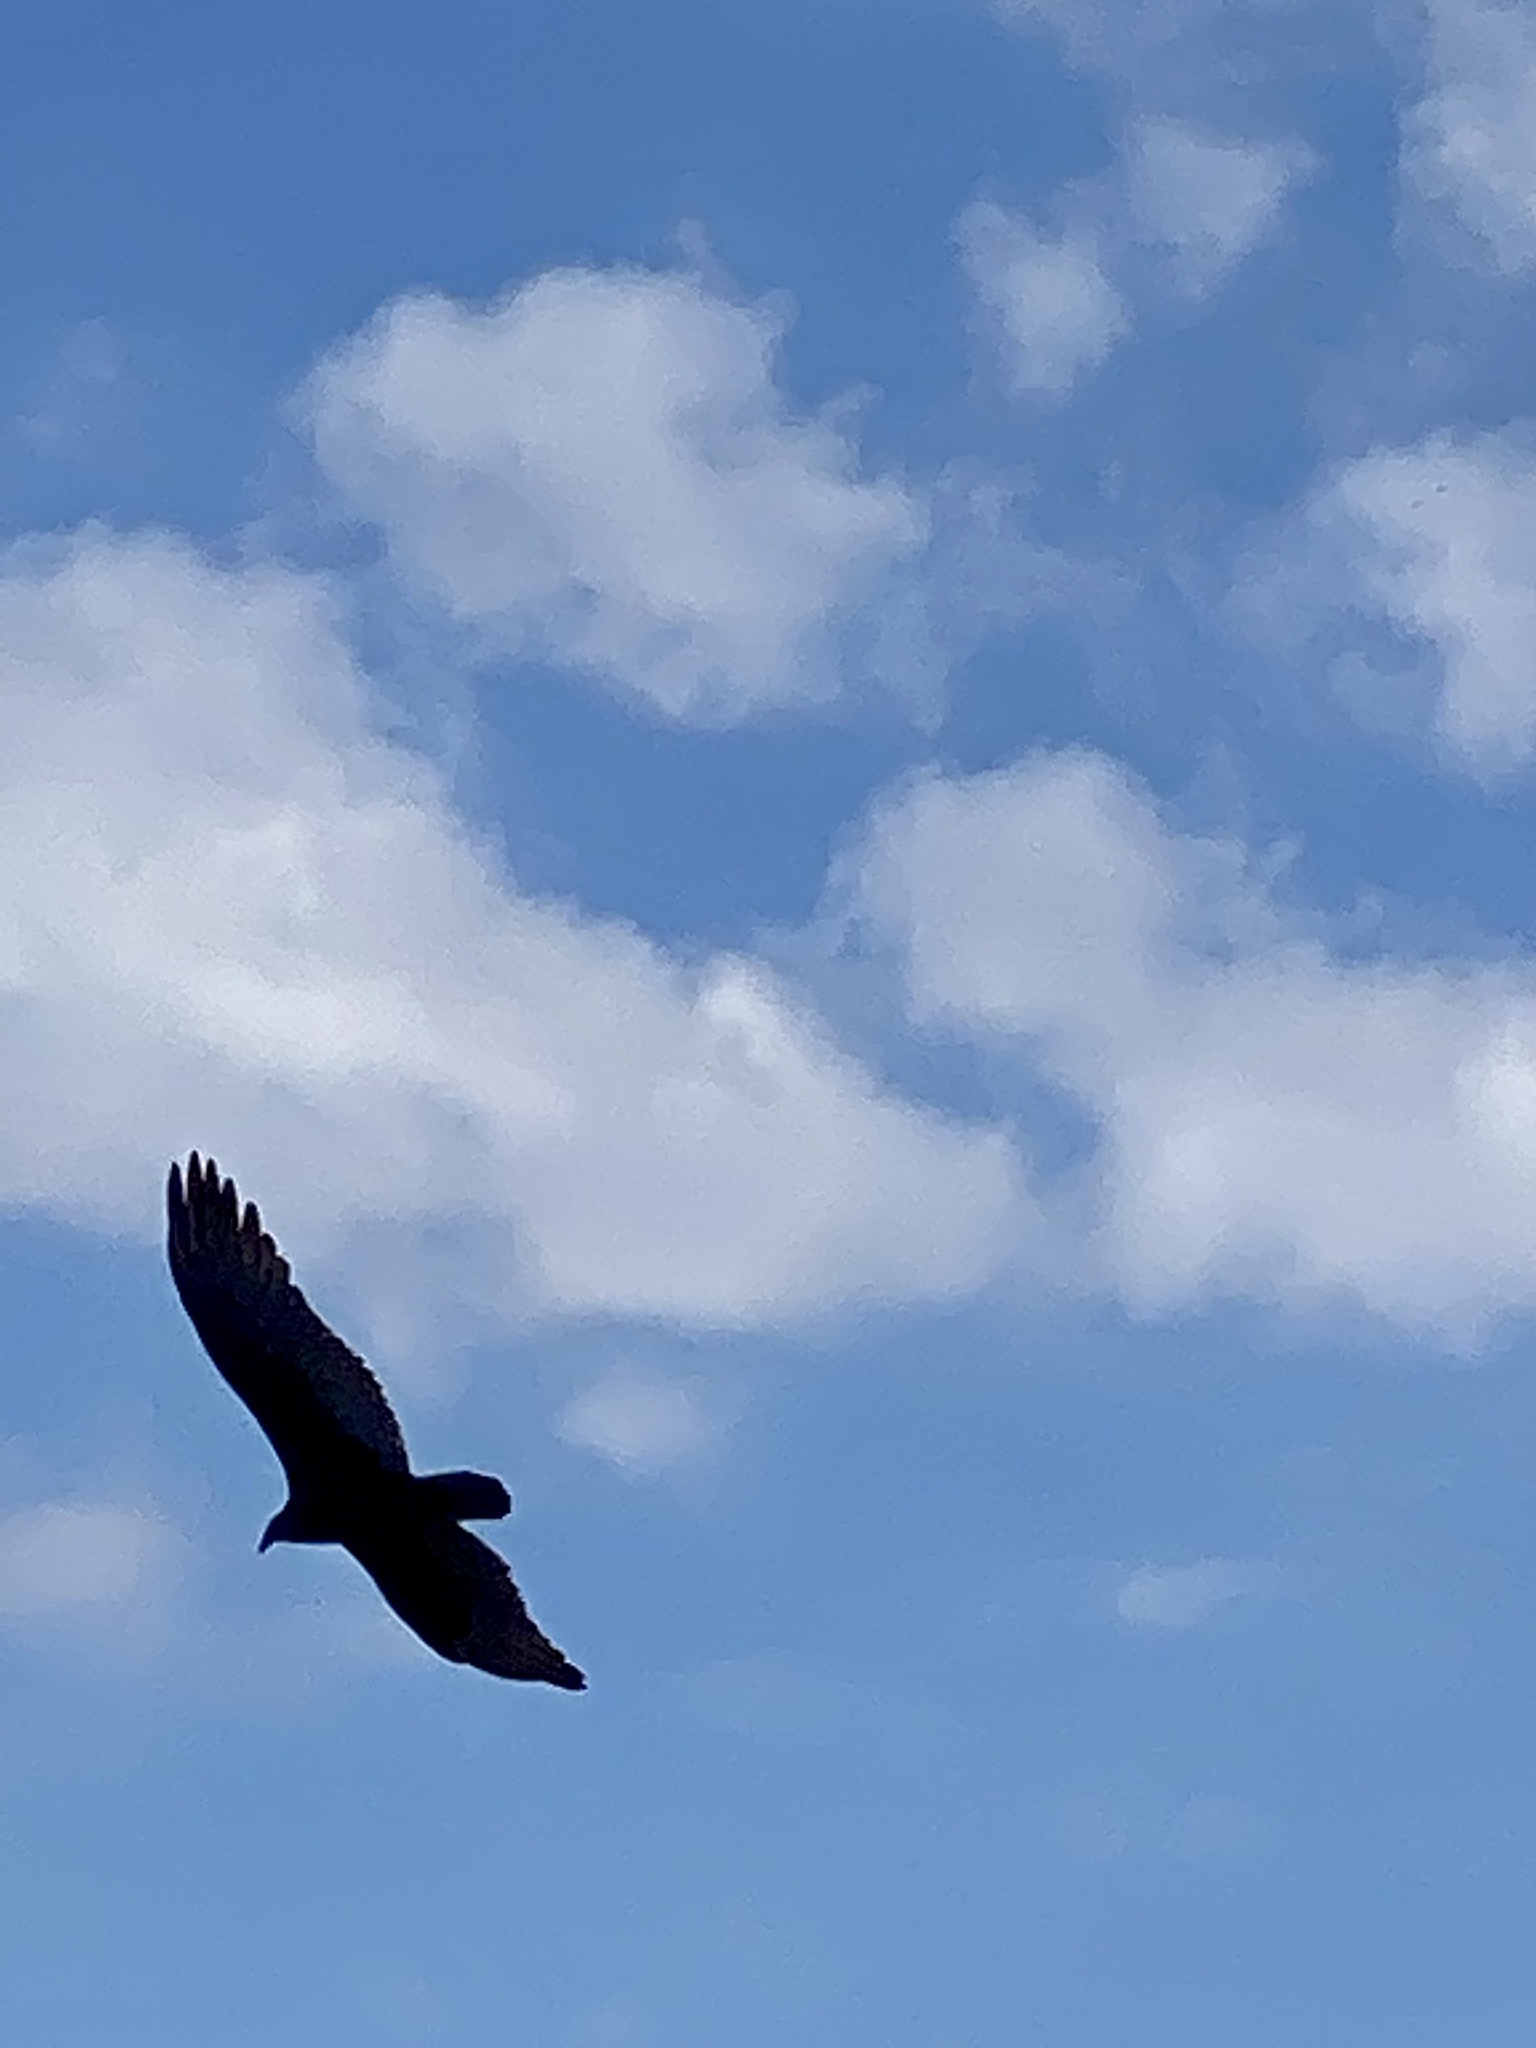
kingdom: Animalia
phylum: Chordata
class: Aves
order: Accipitriformes
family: Cathartidae
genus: Cathartes
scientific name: Cathartes aura
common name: Turkey vulture
